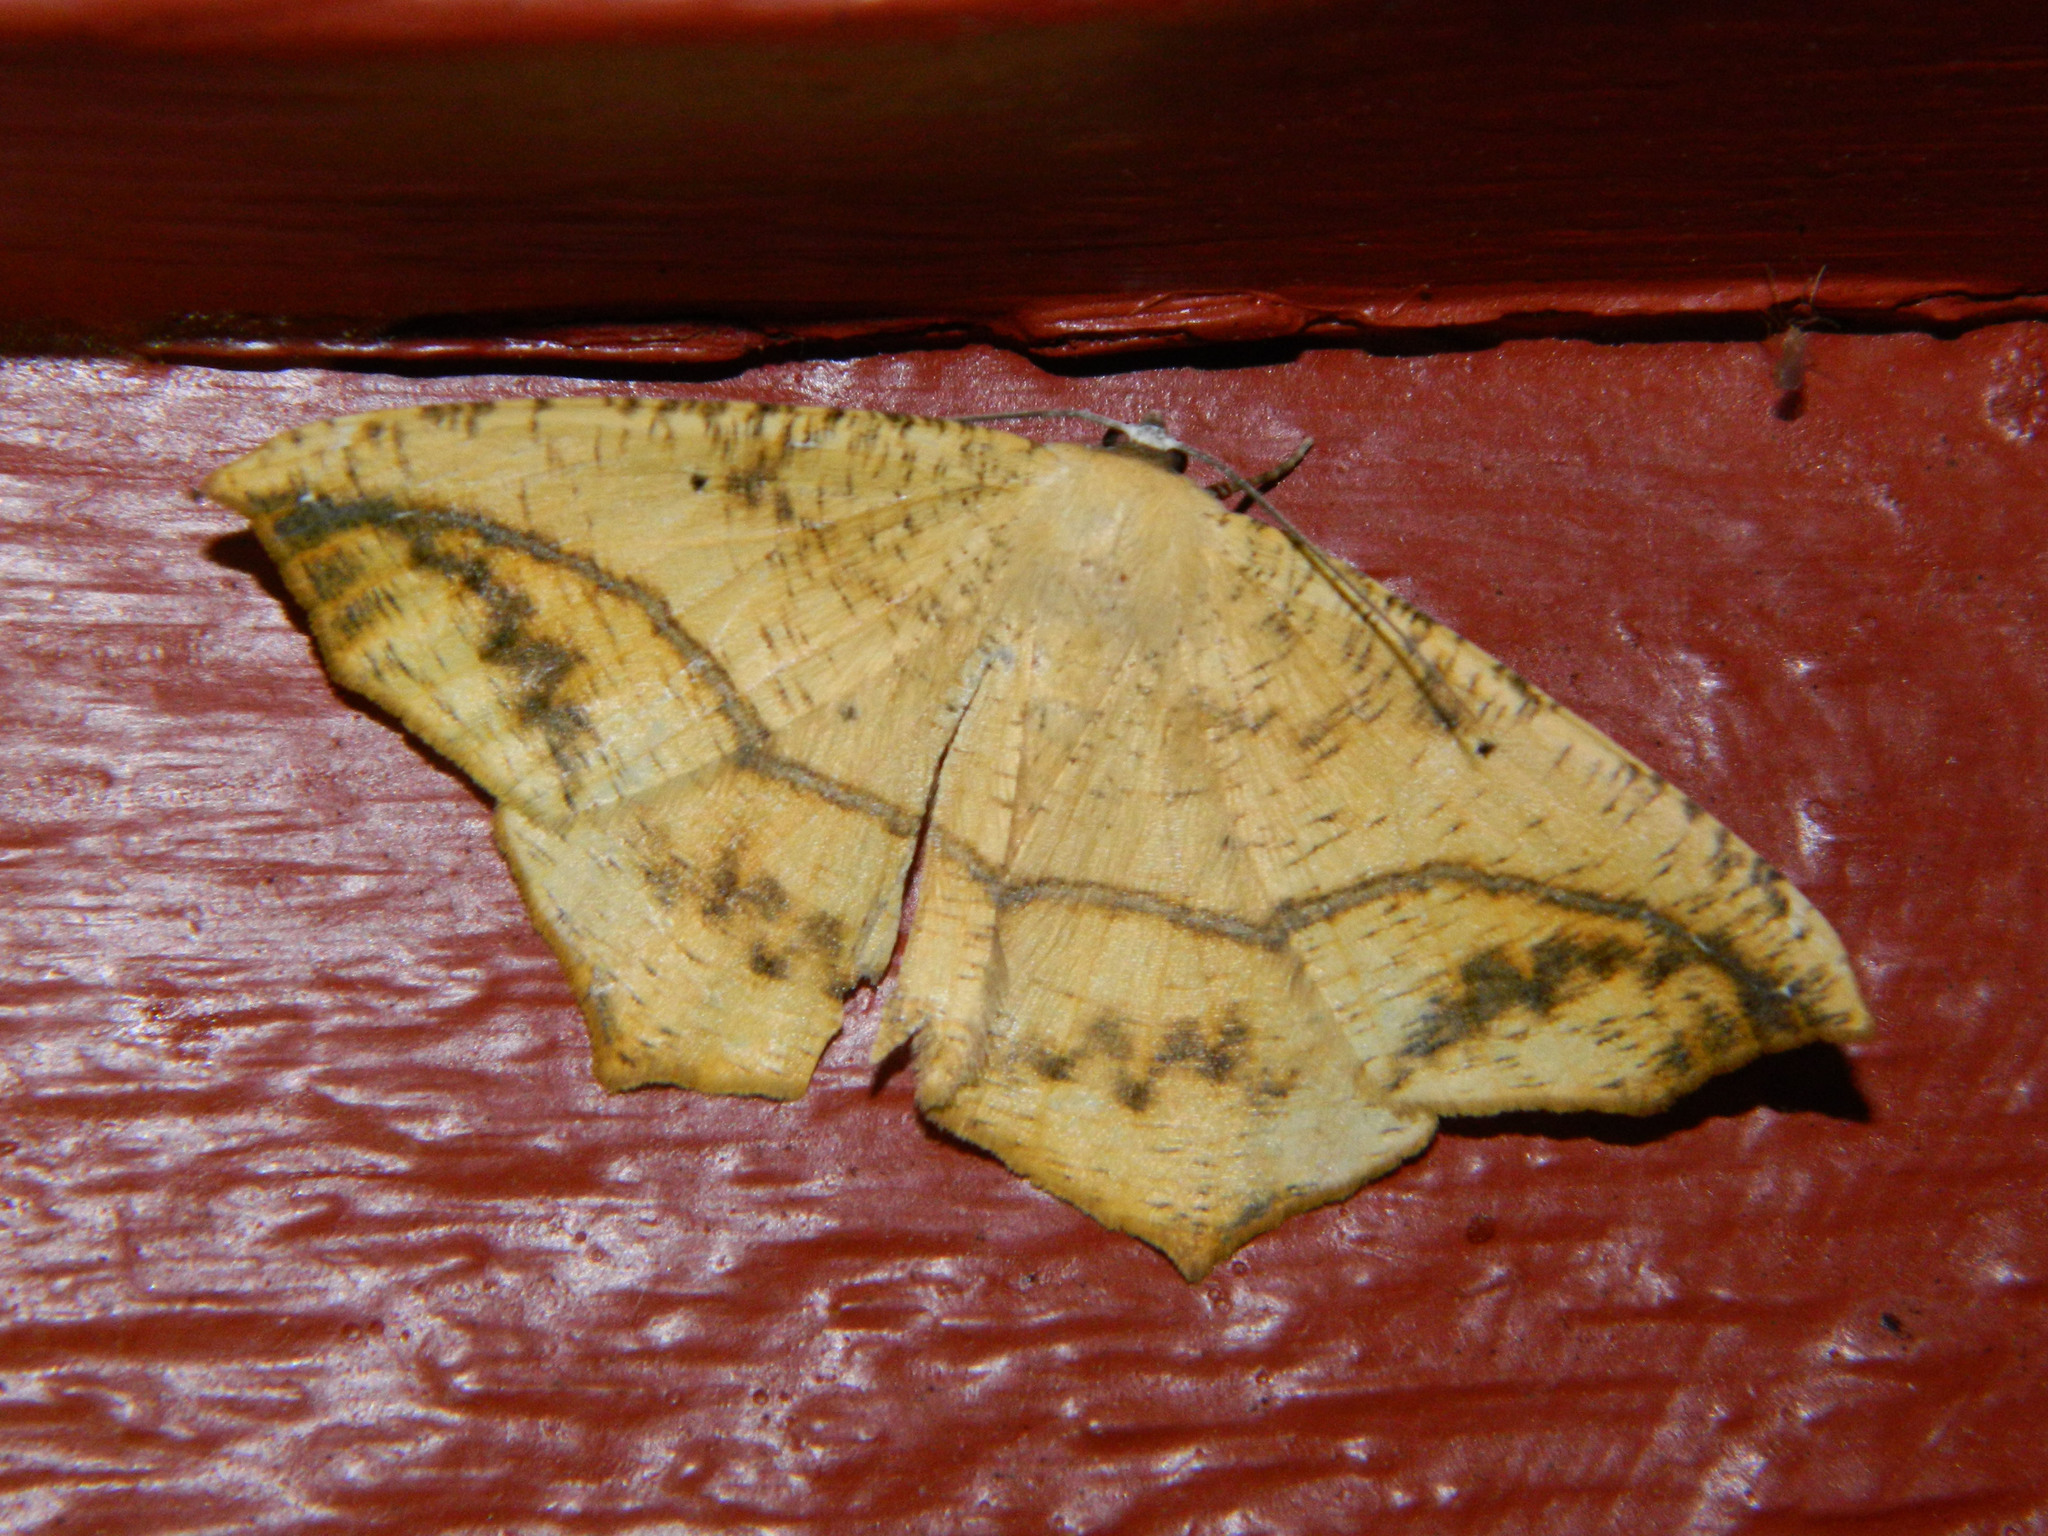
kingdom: Animalia
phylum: Arthropoda
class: Insecta
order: Lepidoptera
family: Geometridae
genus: Prochoerodes
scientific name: Prochoerodes lineola
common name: Large maple spanworm
